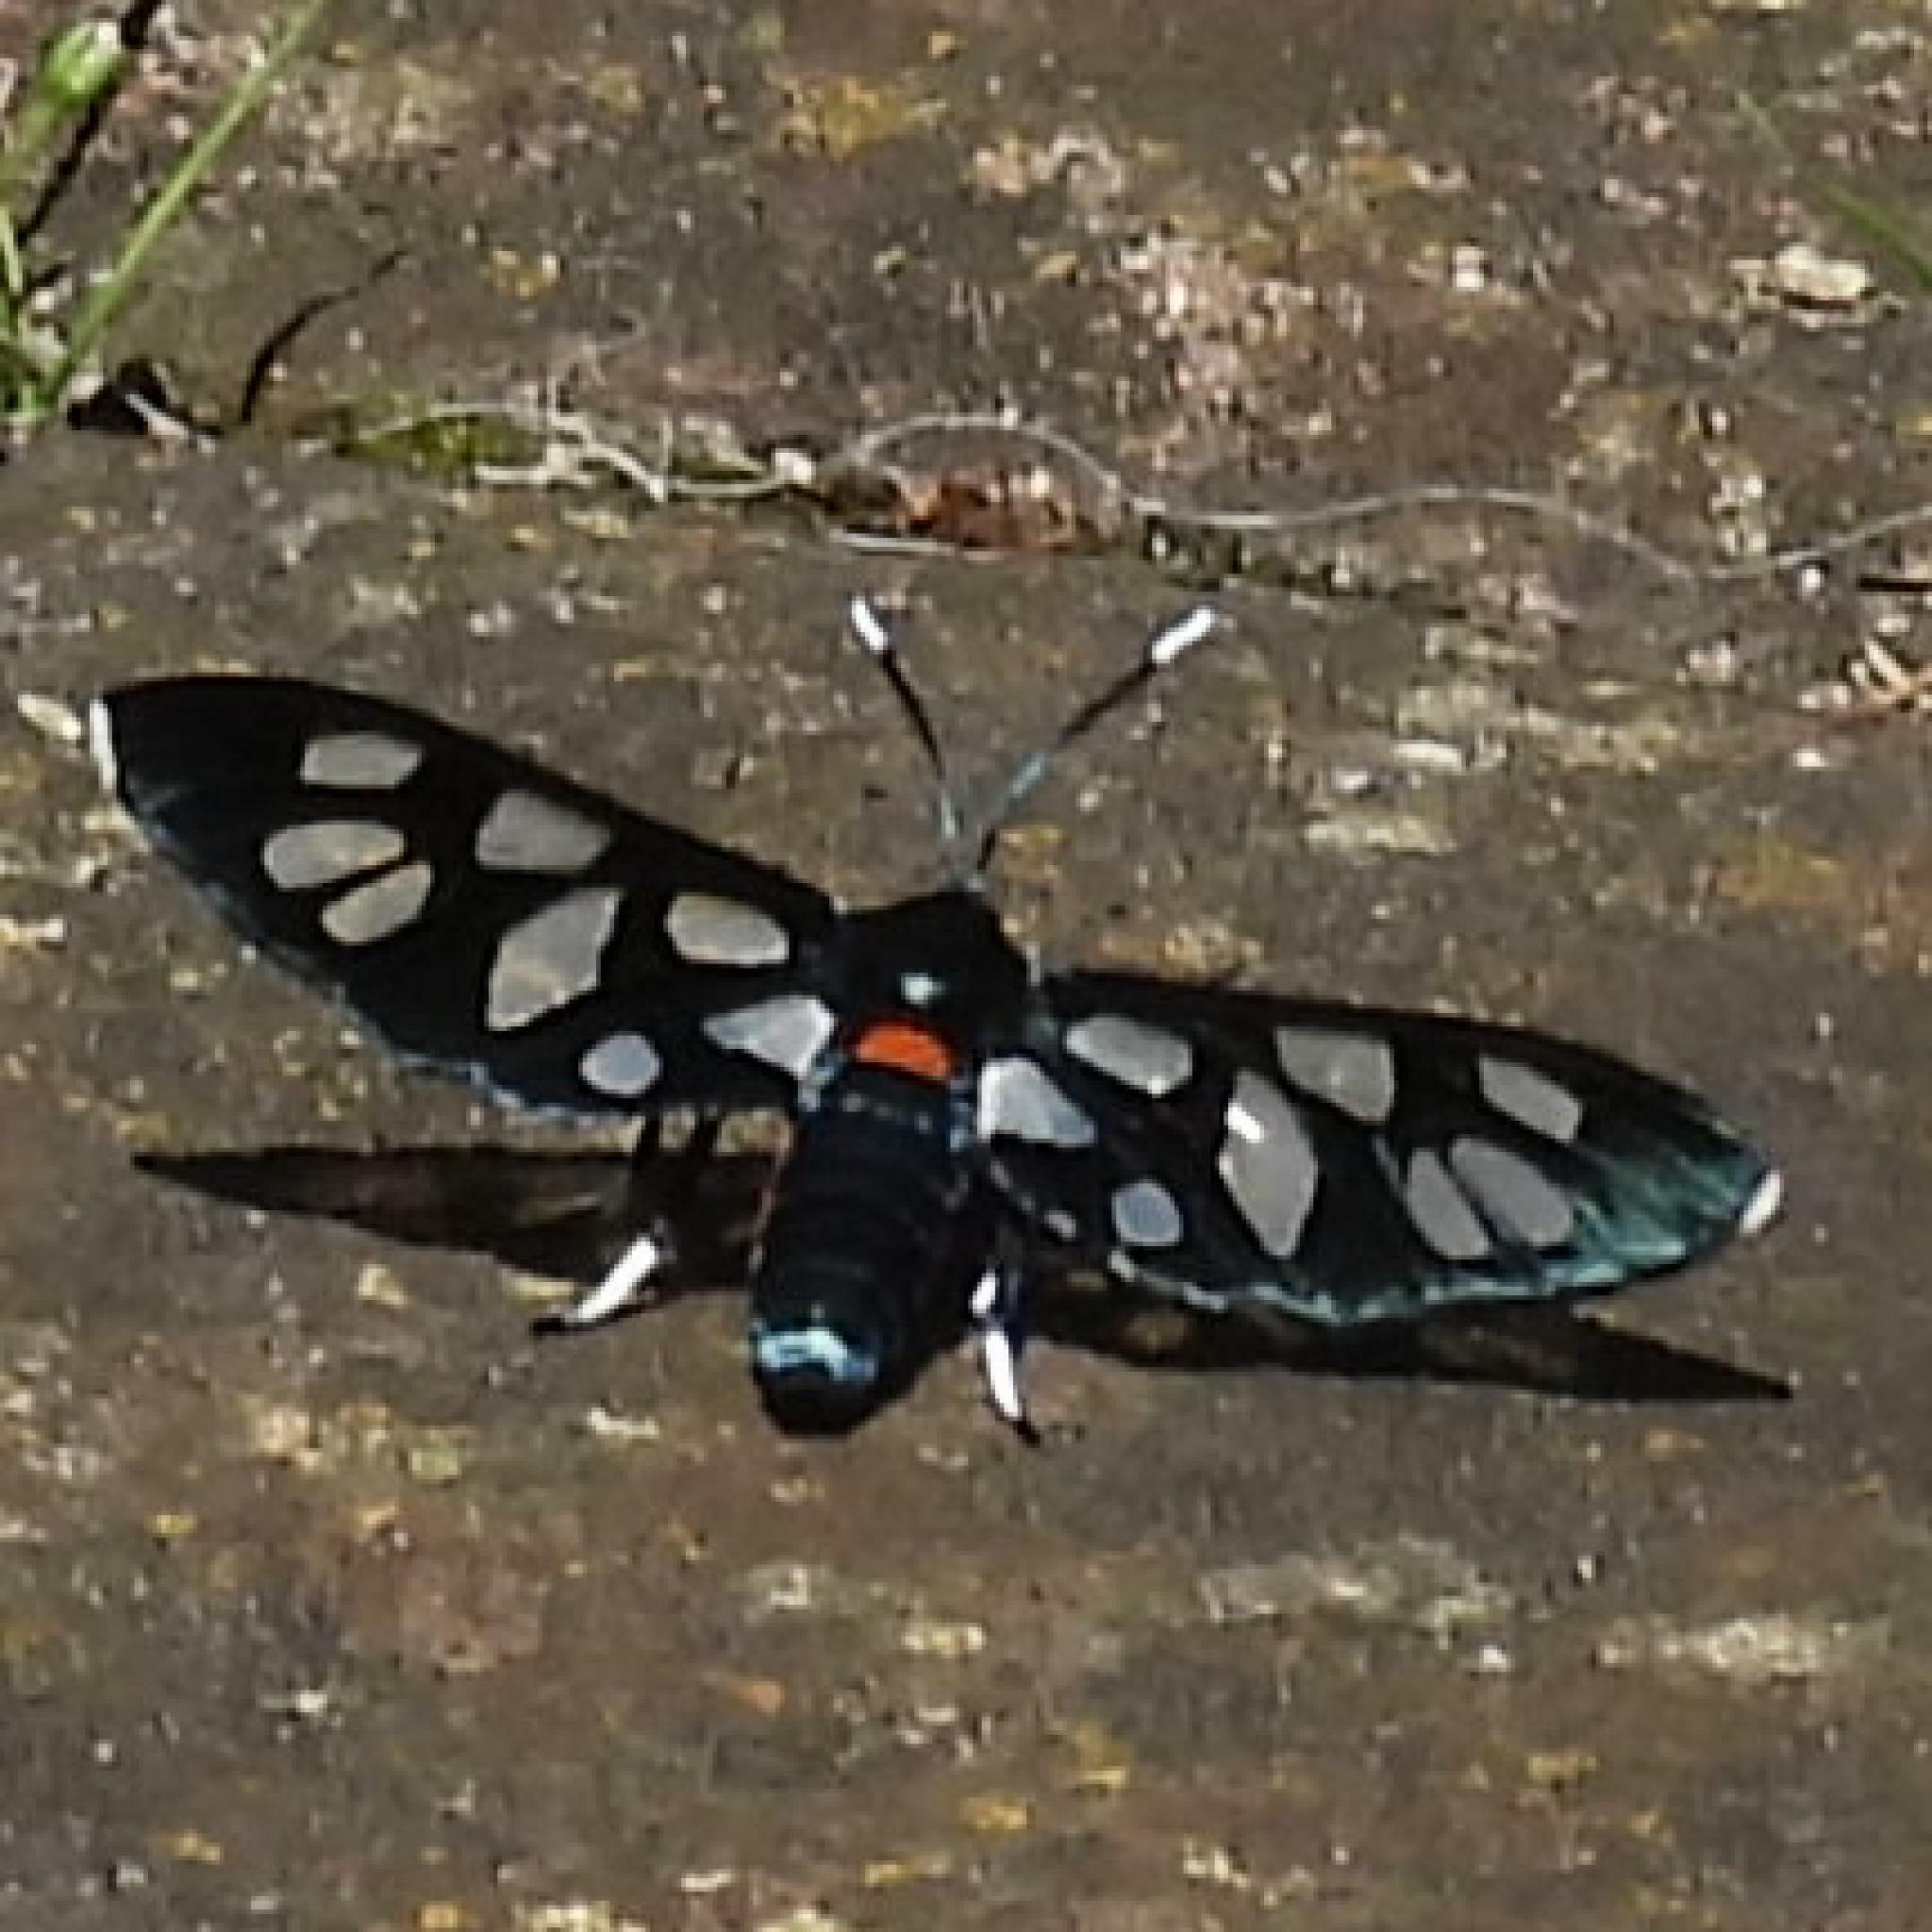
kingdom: Animalia
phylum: Arthropoda
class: Insecta
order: Lepidoptera
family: Erebidae
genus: Amata
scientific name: Amata kuhlweini
